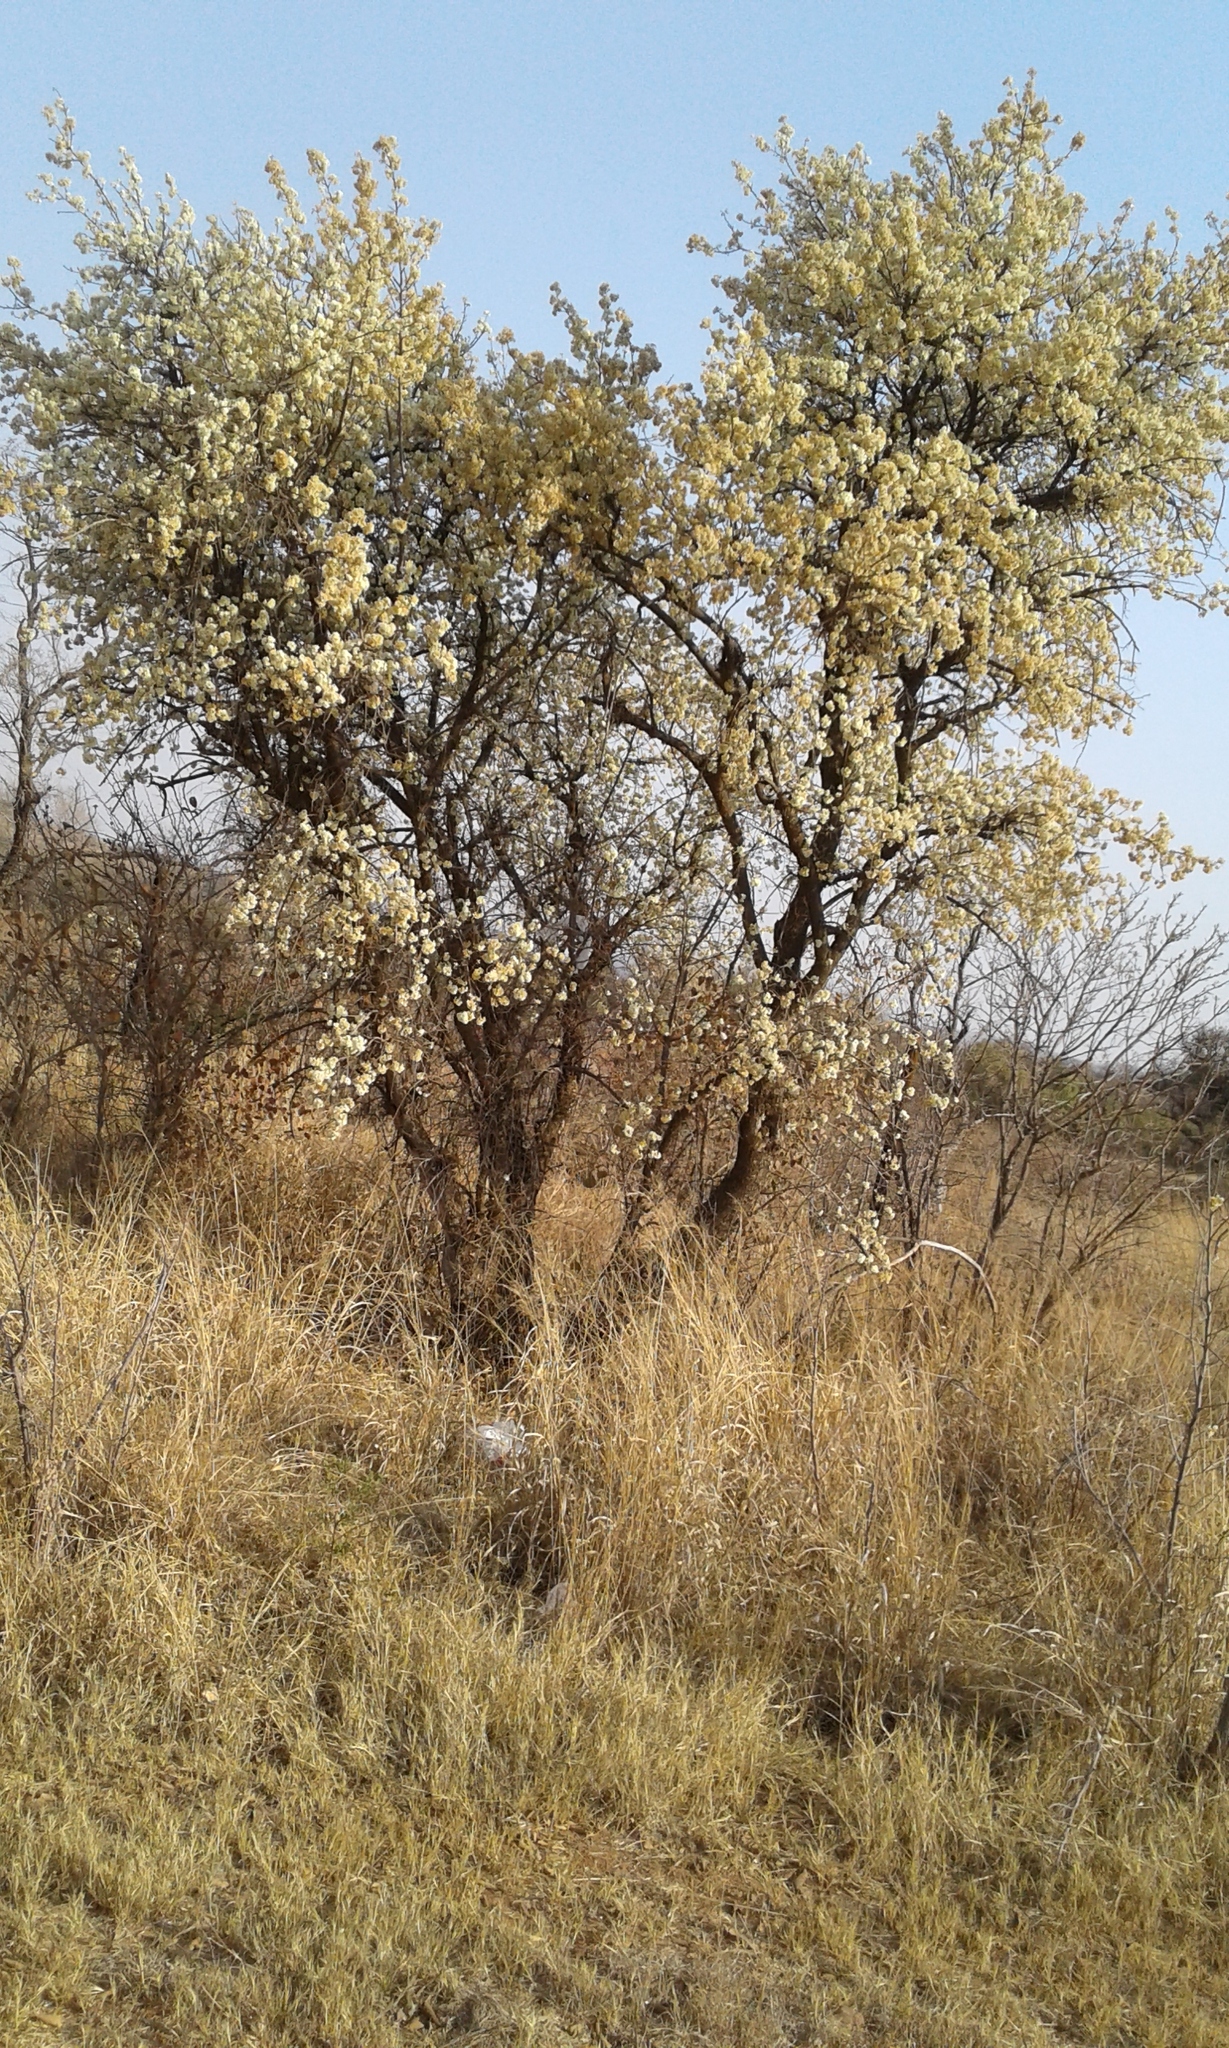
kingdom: Plantae
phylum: Tracheophyta
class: Magnoliopsida
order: Malvales
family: Malvaceae
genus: Dombeya
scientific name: Dombeya rotundifolia
